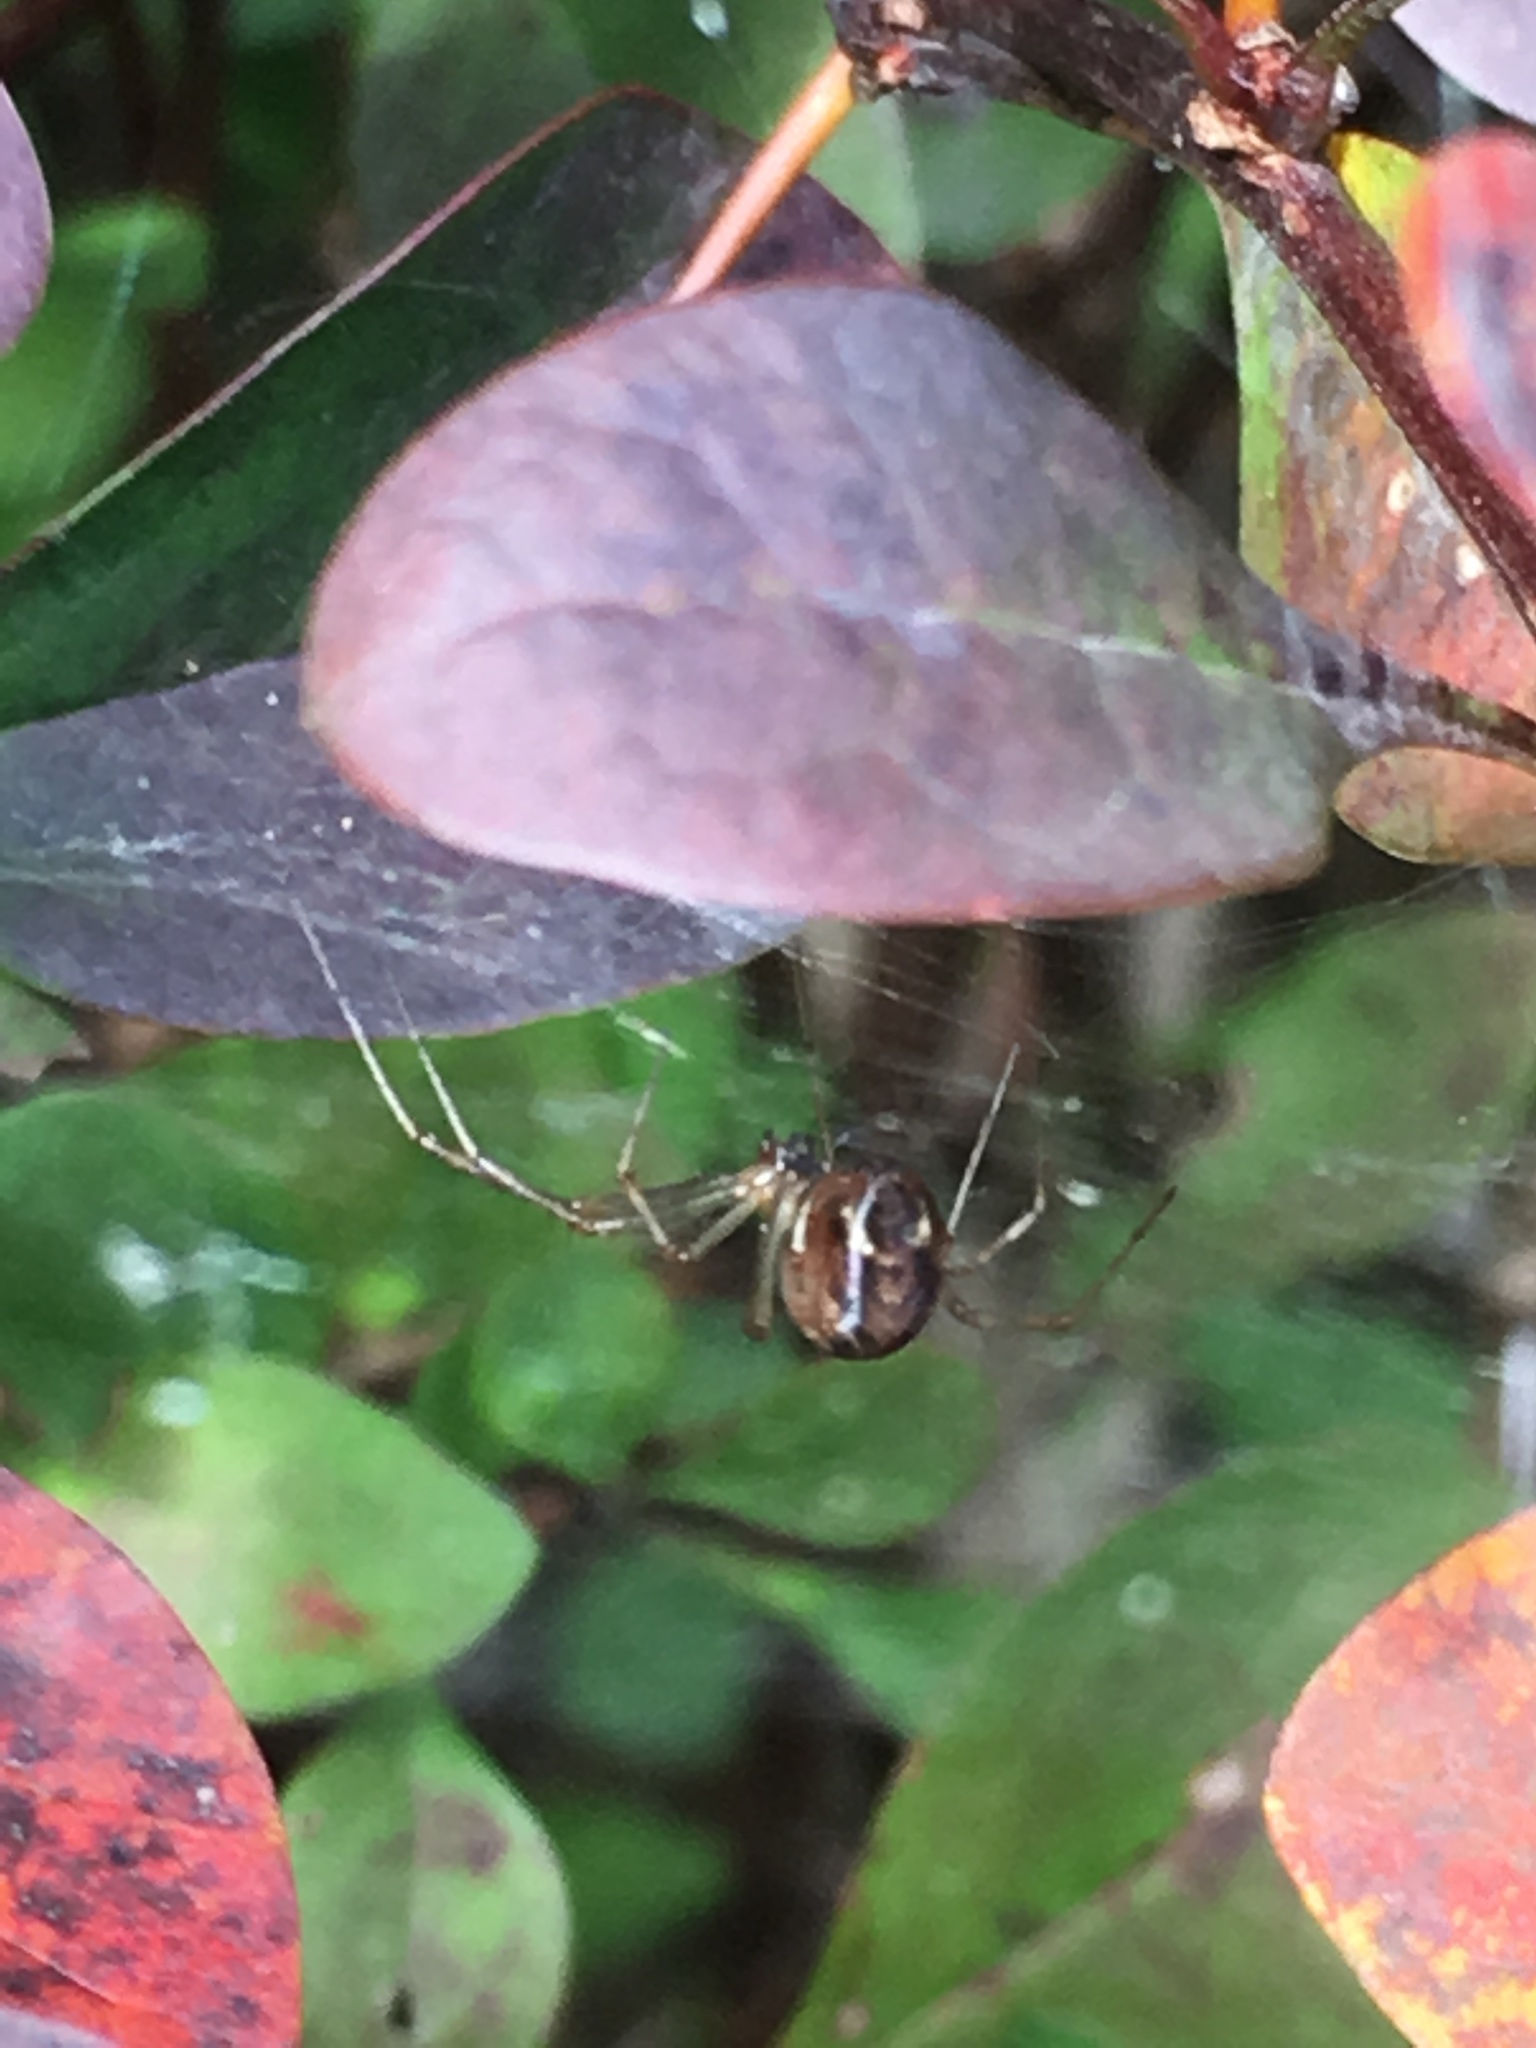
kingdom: Animalia
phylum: Arthropoda
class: Arachnida
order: Araneae
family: Linyphiidae
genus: Linyphia
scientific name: Linyphia triangularis
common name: Money spider
